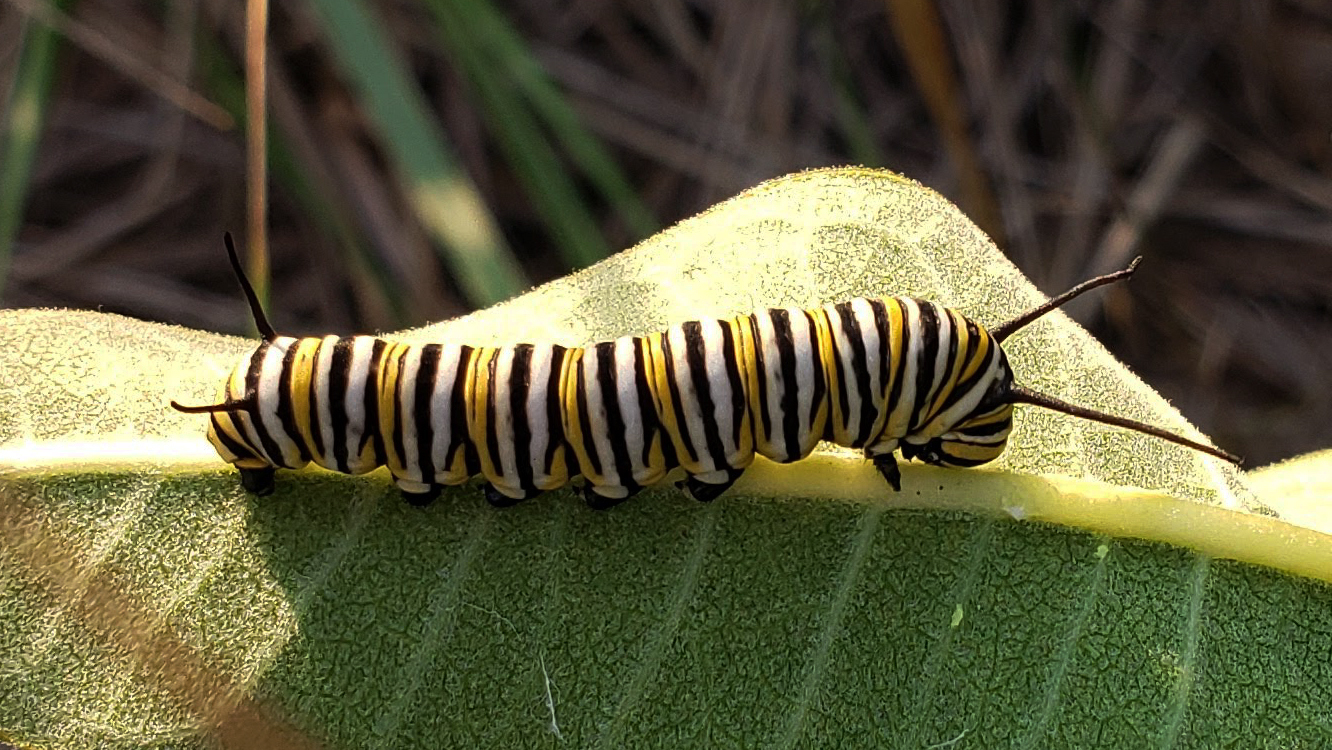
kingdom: Animalia
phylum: Arthropoda
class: Insecta
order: Lepidoptera
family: Nymphalidae
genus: Danaus
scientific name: Danaus plexippus
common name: Monarch
